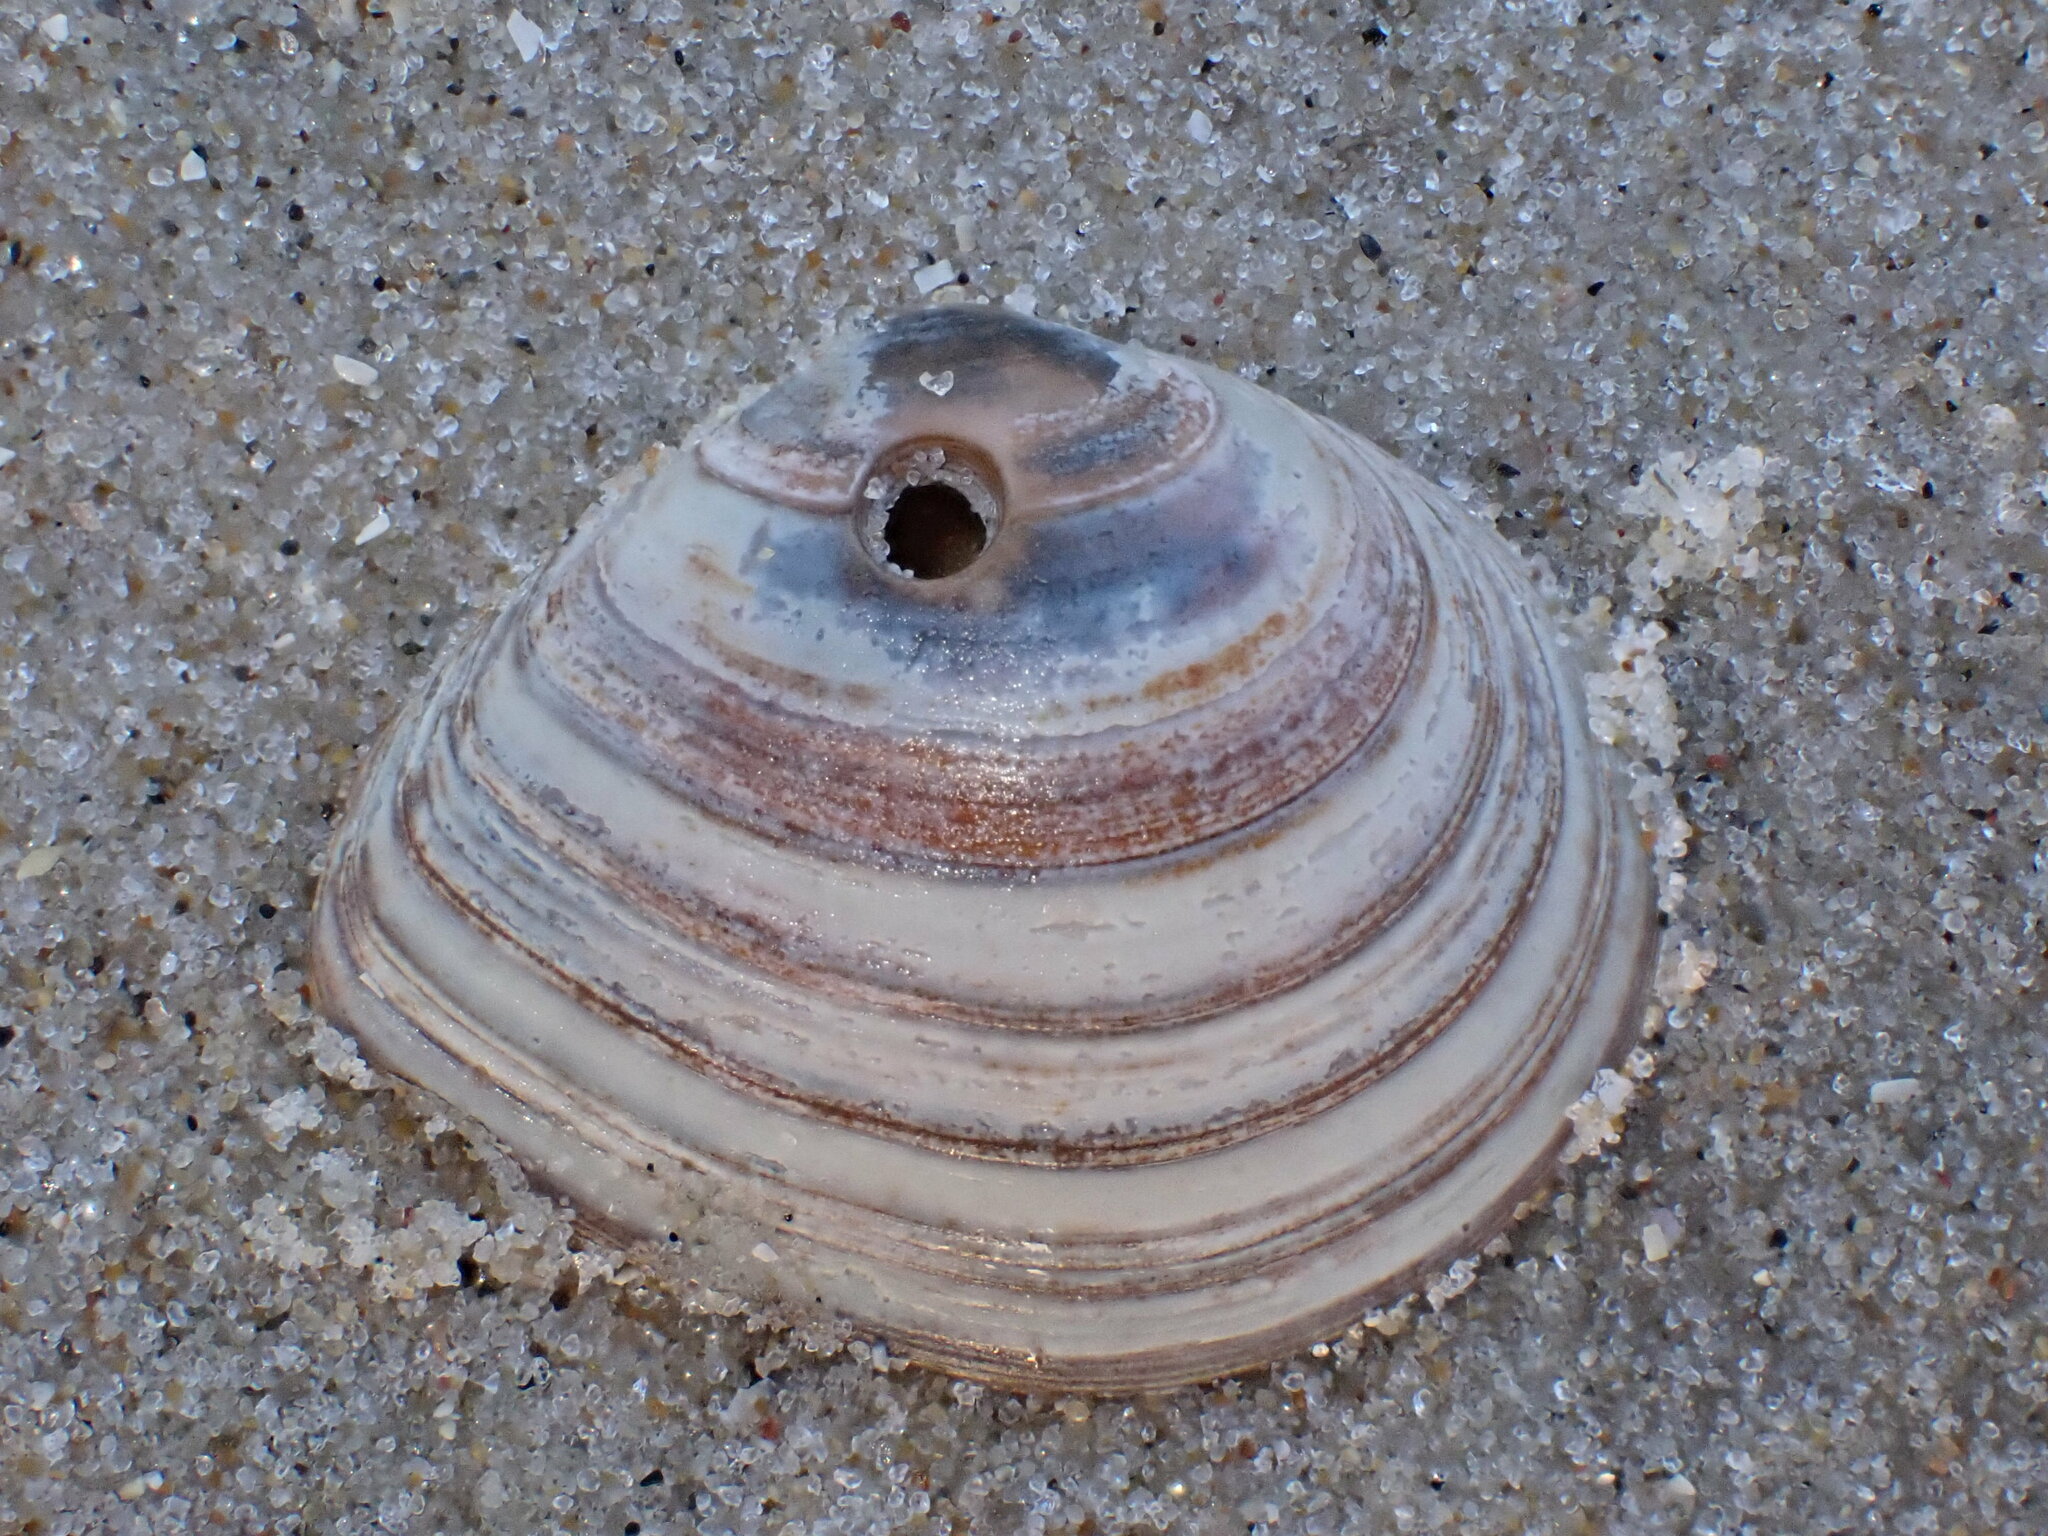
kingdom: Animalia
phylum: Mollusca
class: Bivalvia
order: Cardiida
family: Tellinidae
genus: Macoma
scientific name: Macoma balthica
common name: Baltic tellin
